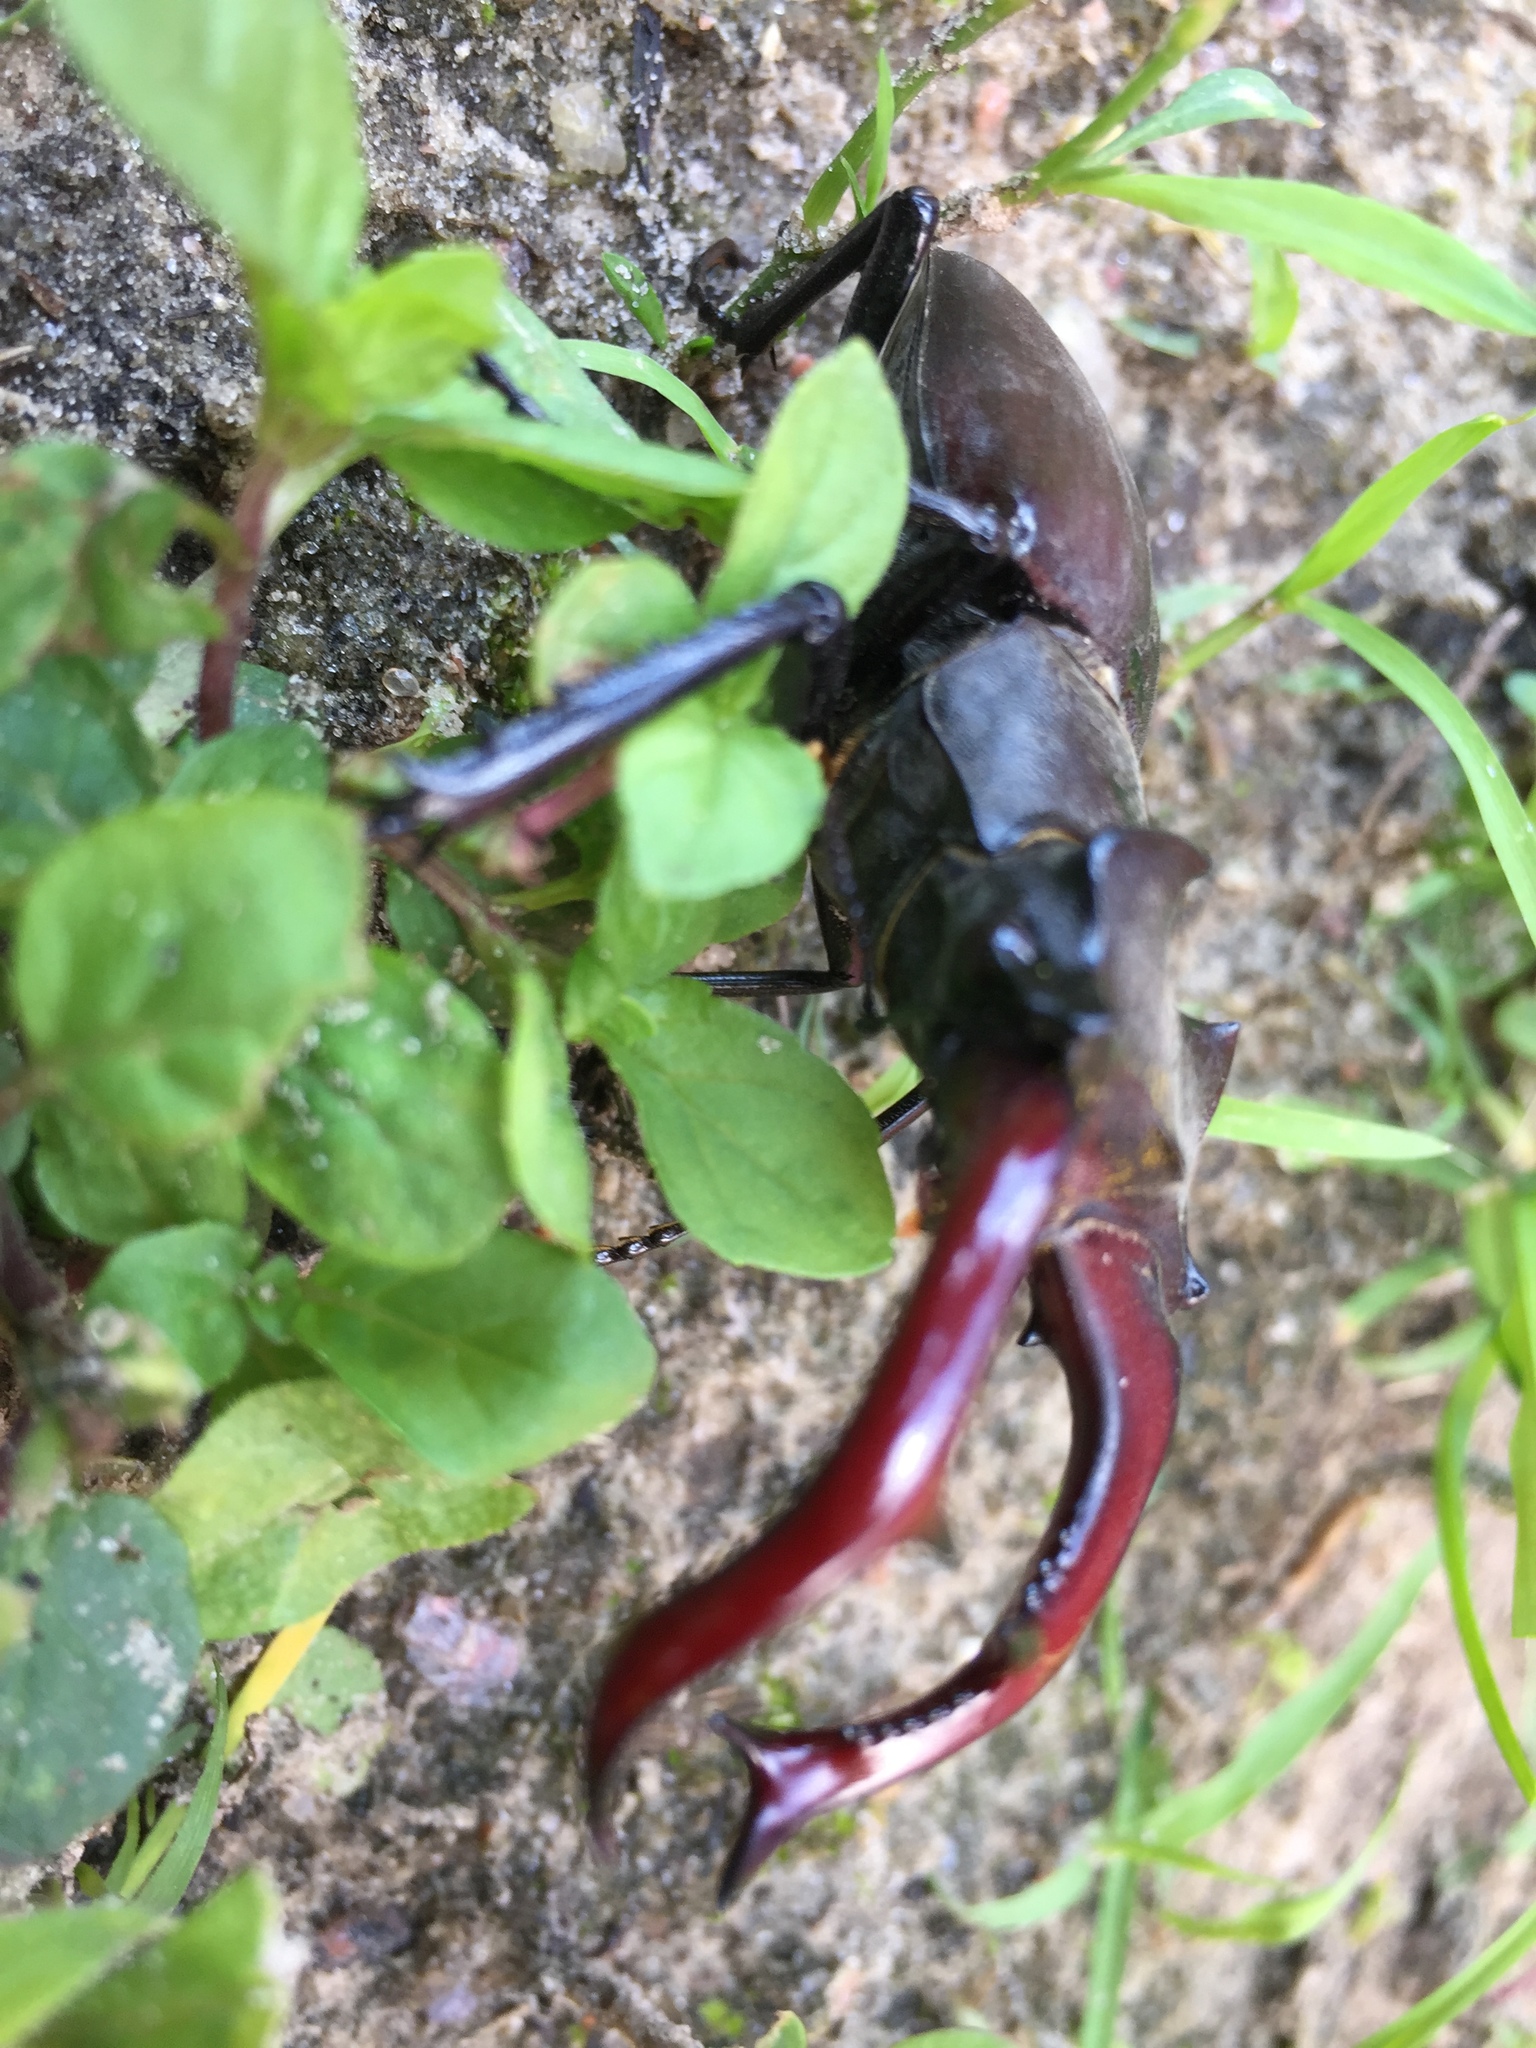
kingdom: Animalia
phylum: Arthropoda
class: Insecta
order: Coleoptera
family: Lucanidae
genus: Lucanus
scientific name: Lucanus cervus
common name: Stag beetle
